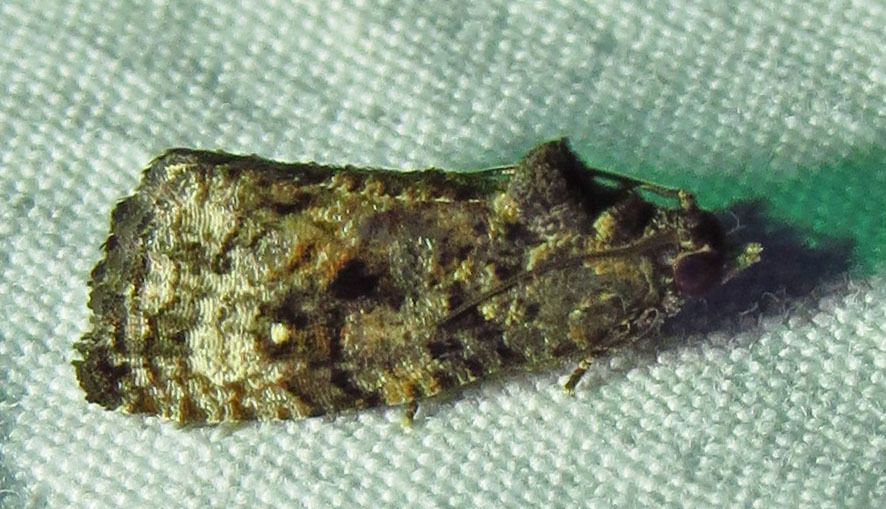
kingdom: Animalia
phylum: Arthropoda
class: Insecta
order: Lepidoptera
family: Tortricidae
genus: Gymnandrosoma
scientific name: Gymnandrosoma punctidiscanum
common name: Dotted ecdytolopha moth
